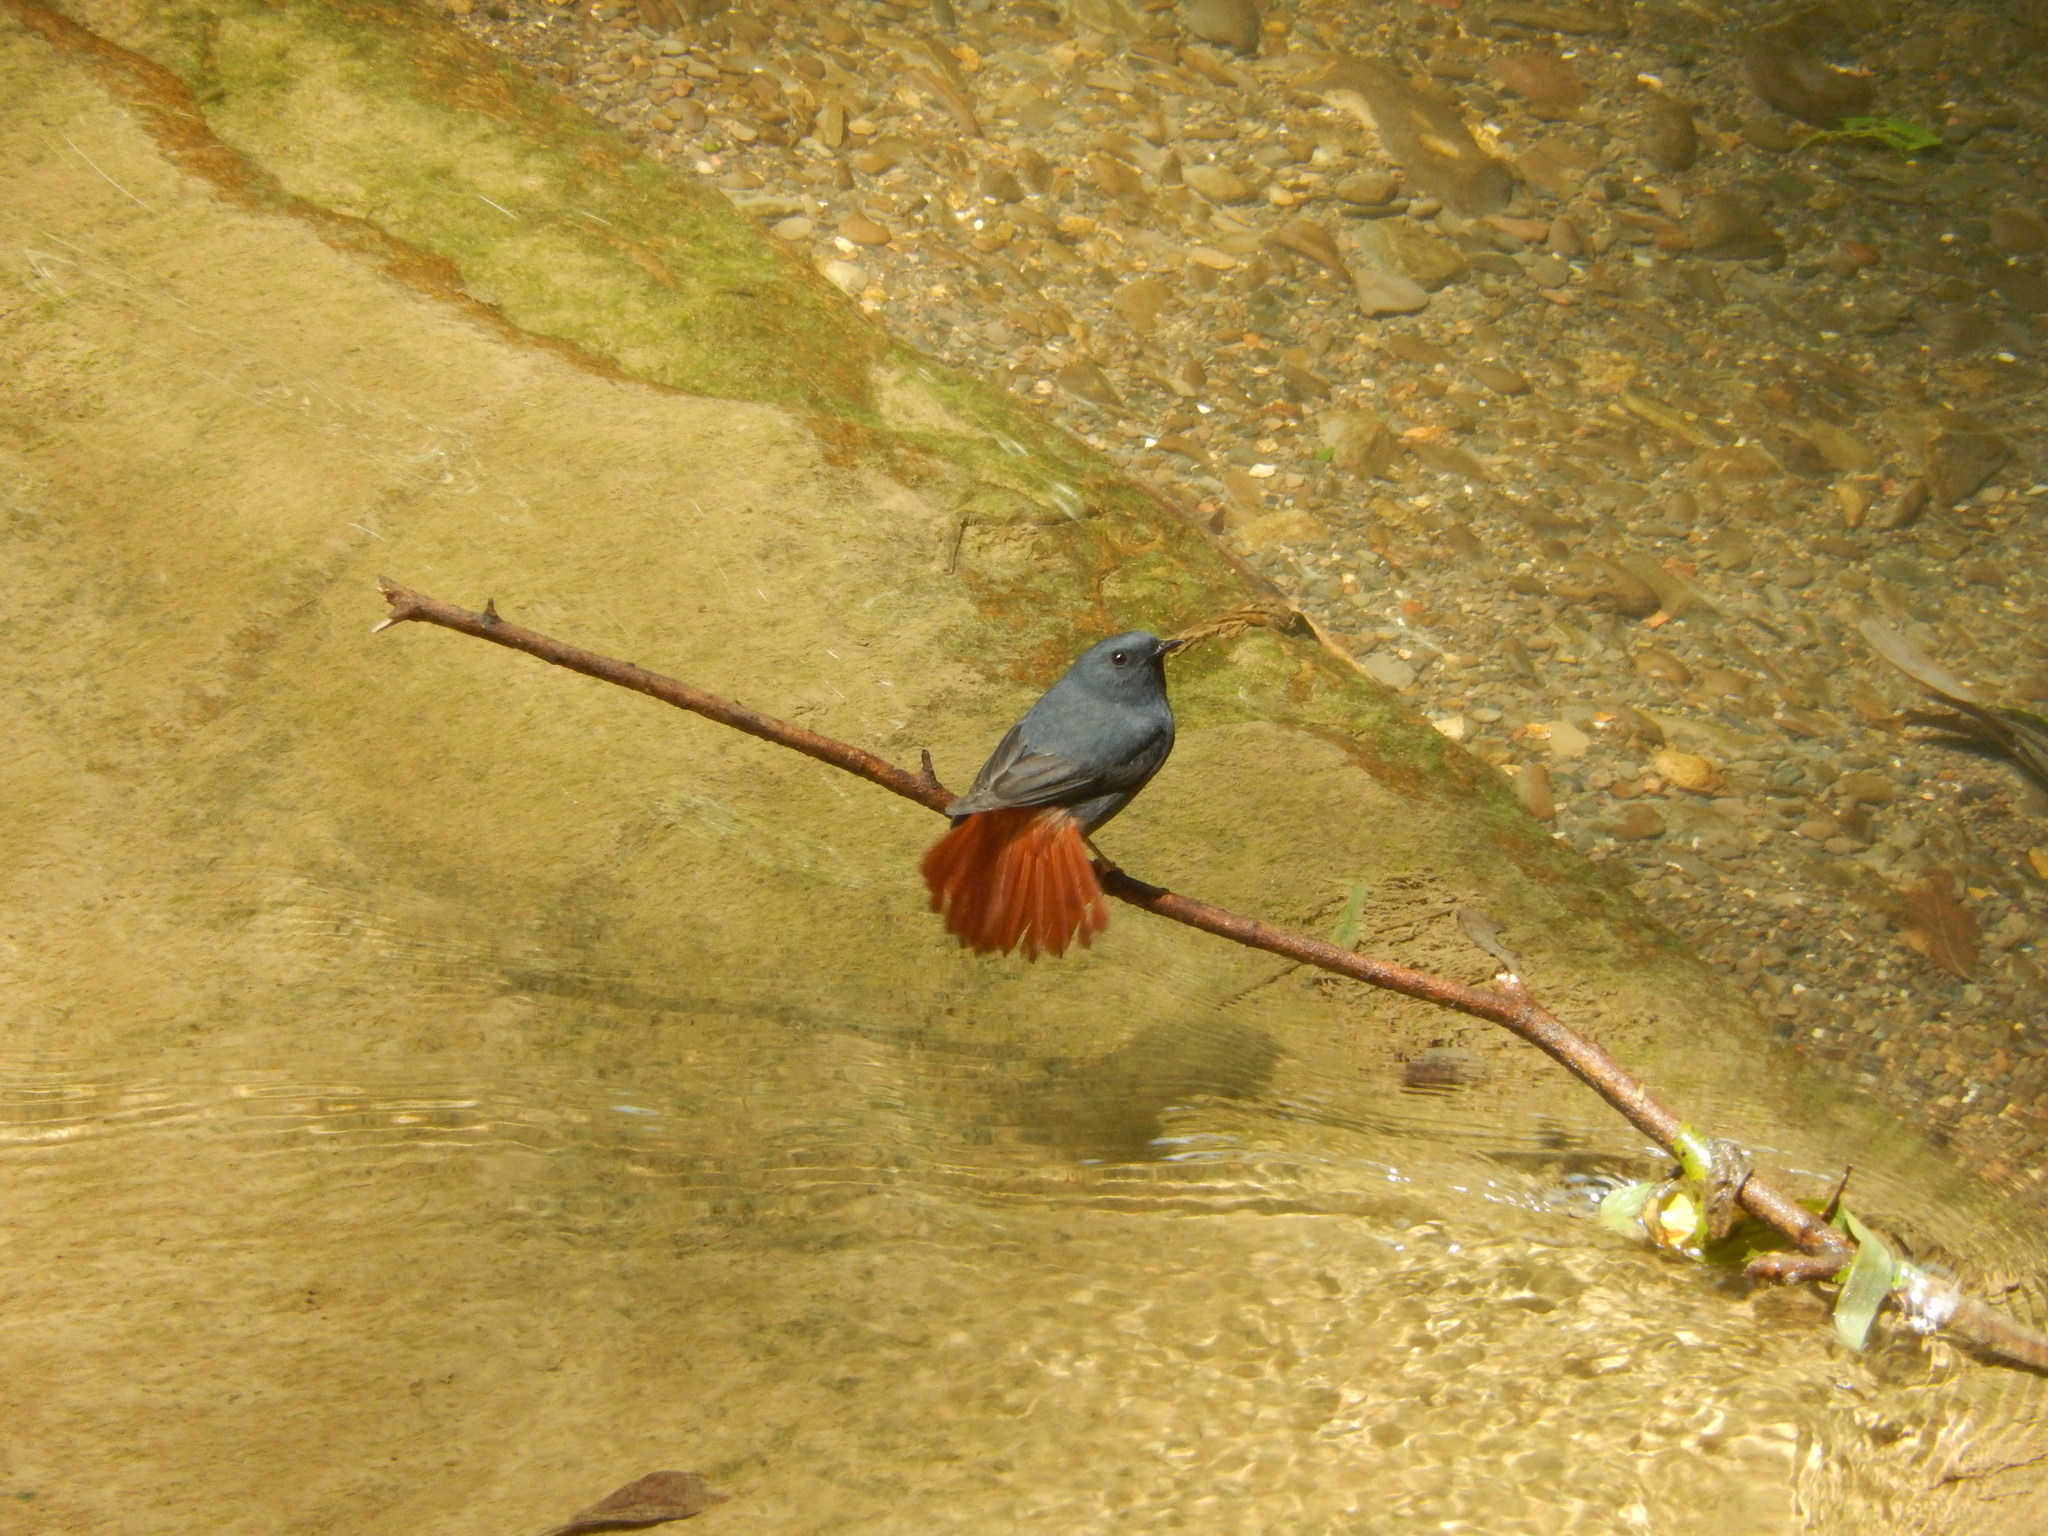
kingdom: Animalia
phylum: Chordata
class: Aves
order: Passeriformes
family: Muscicapidae
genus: Phoenicurus
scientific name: Phoenicurus fuliginosus
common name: Plumbeous water redstart
